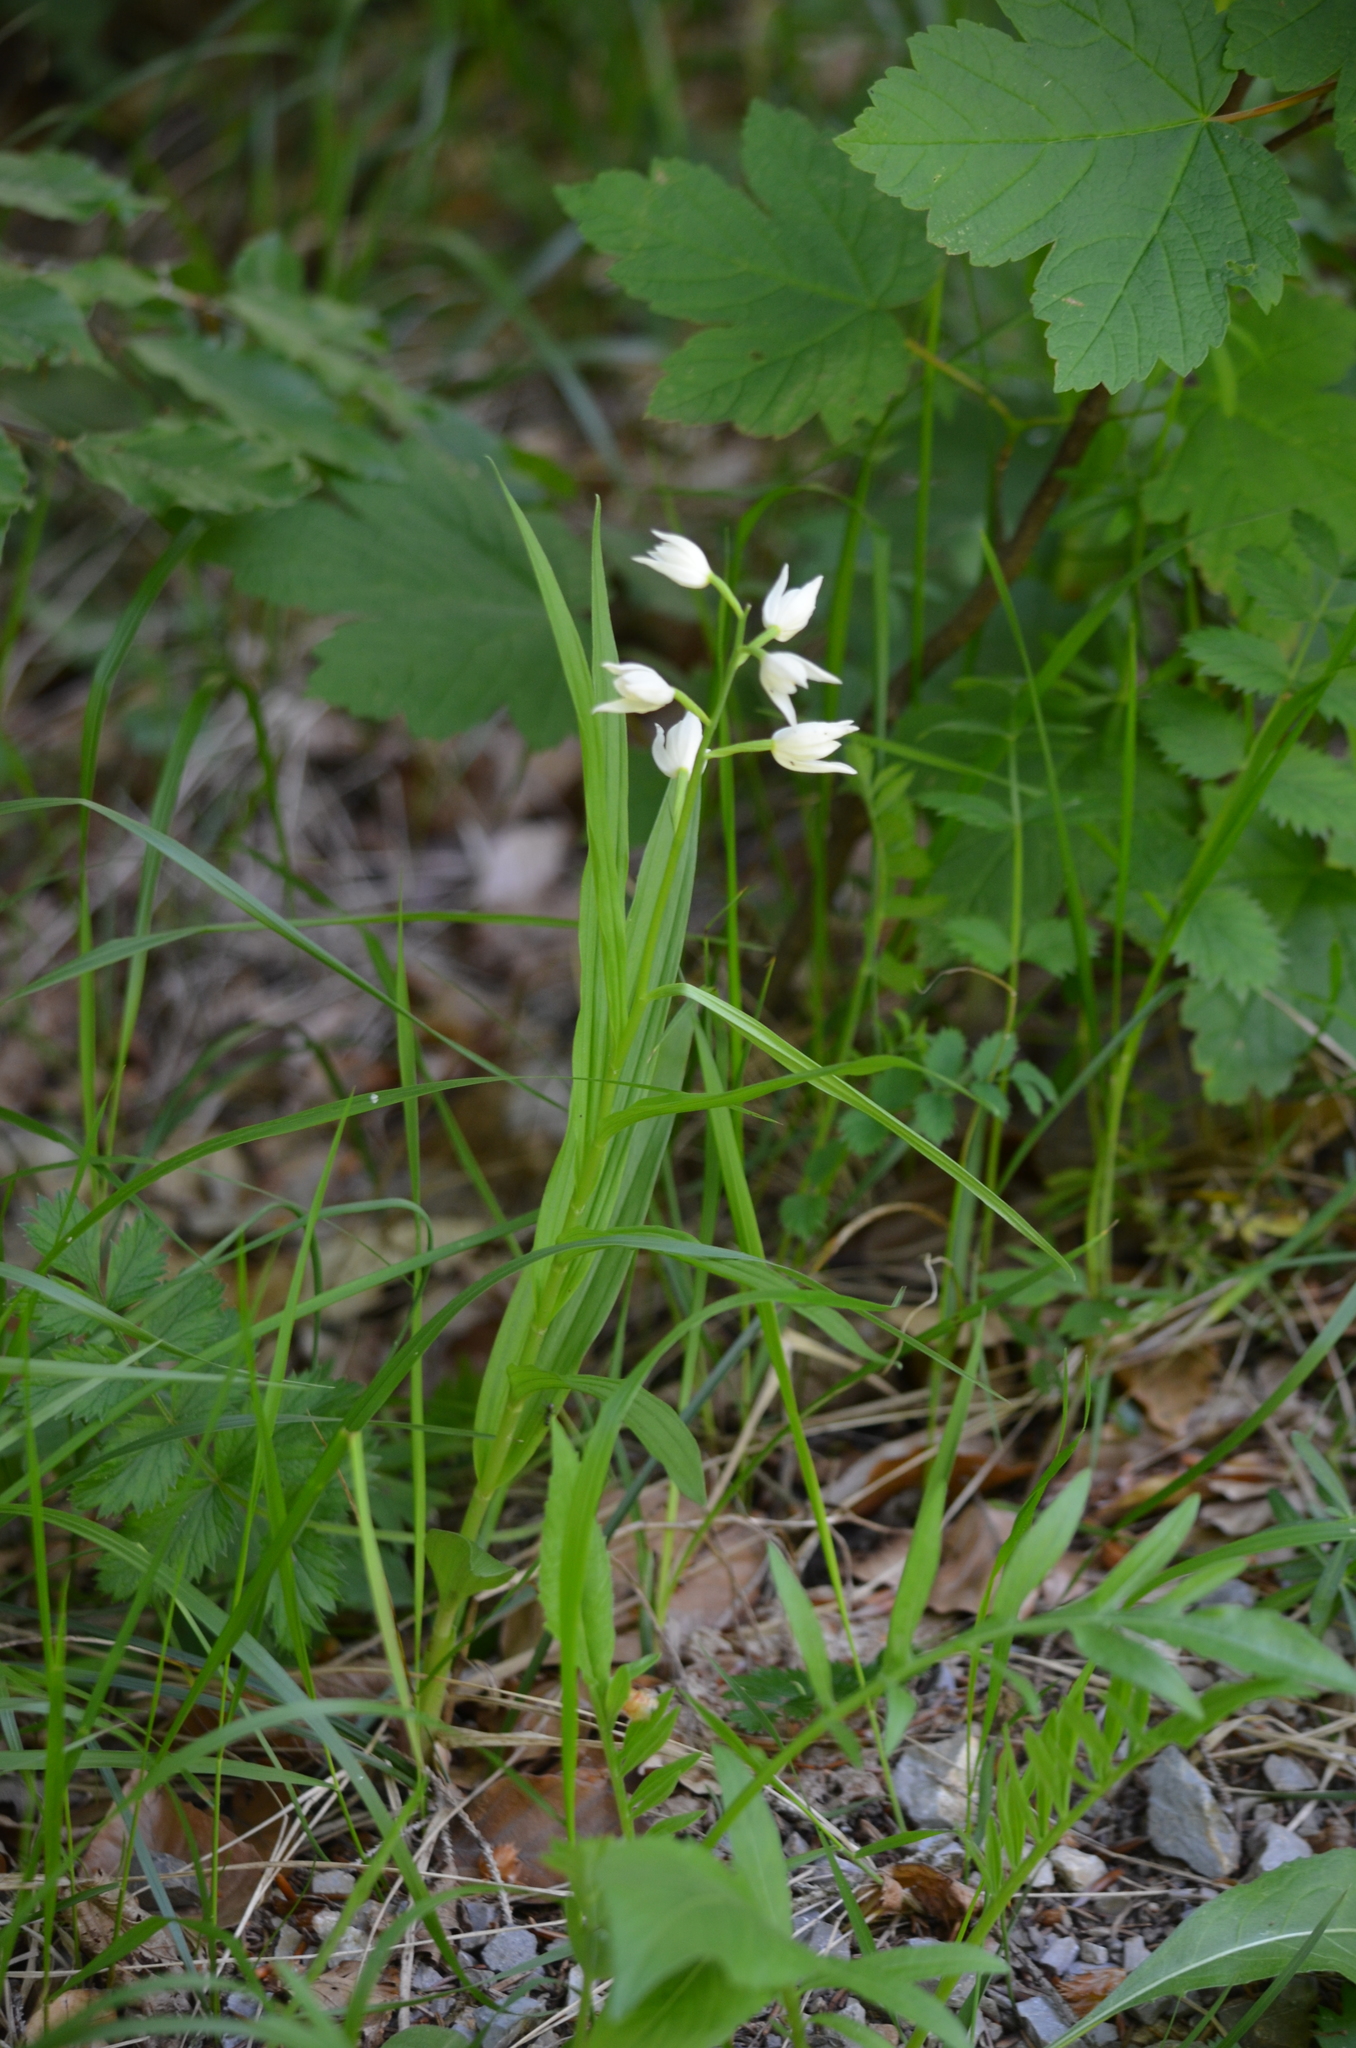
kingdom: Plantae
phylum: Tracheophyta
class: Liliopsida
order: Asparagales
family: Orchidaceae
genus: Cephalanthera
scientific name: Cephalanthera longifolia
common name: Narrow-leaved helleborine
